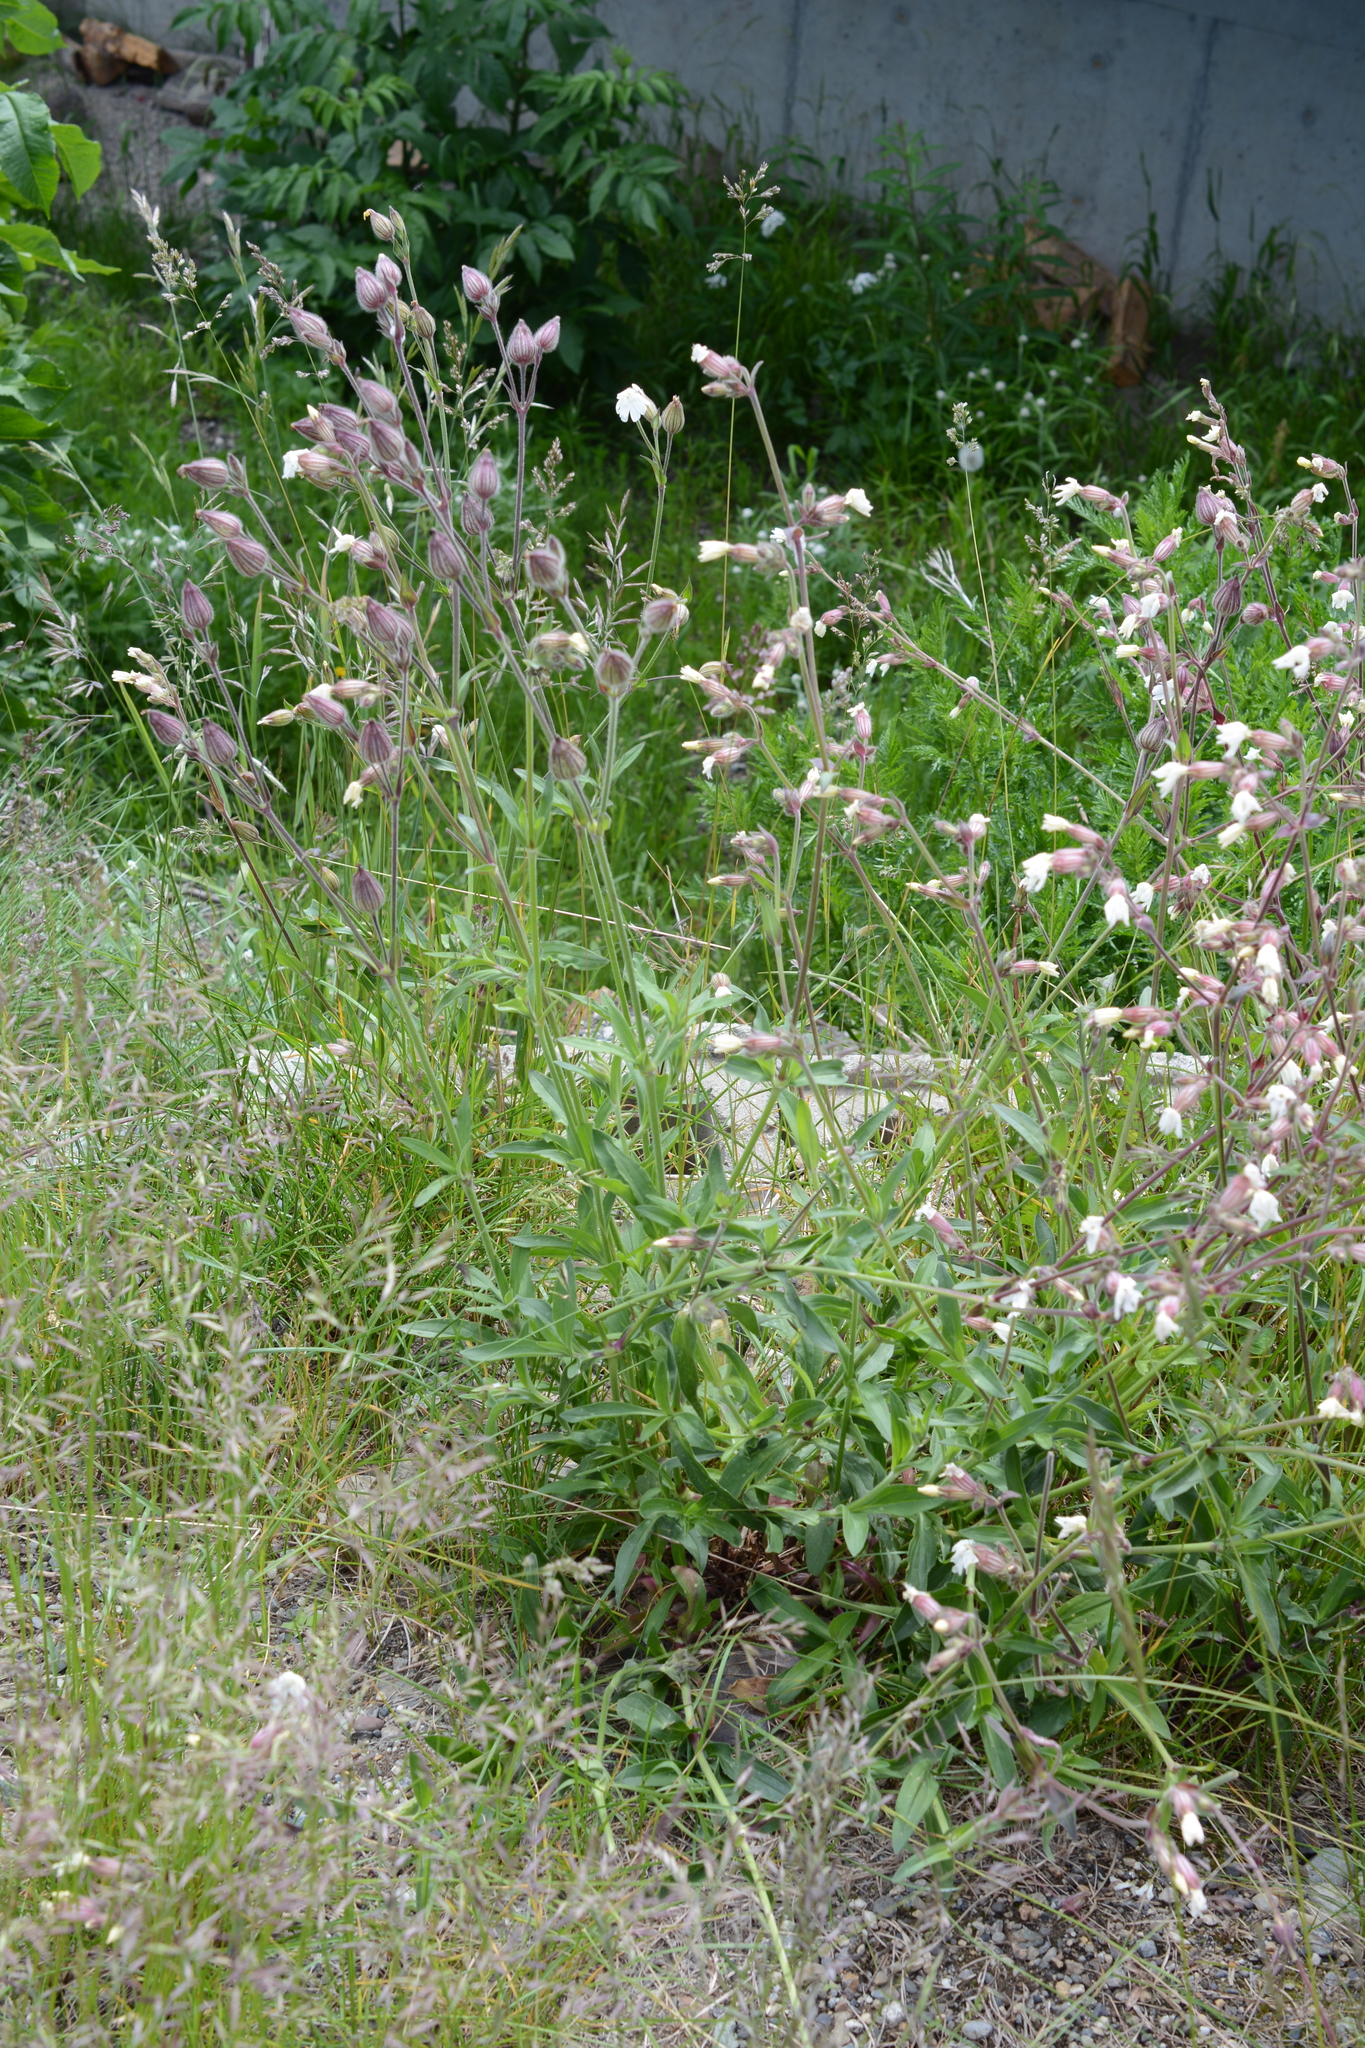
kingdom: Plantae
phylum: Tracheophyta
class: Magnoliopsida
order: Caryophyllales
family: Caryophyllaceae
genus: Silene
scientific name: Silene latifolia
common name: White campion
